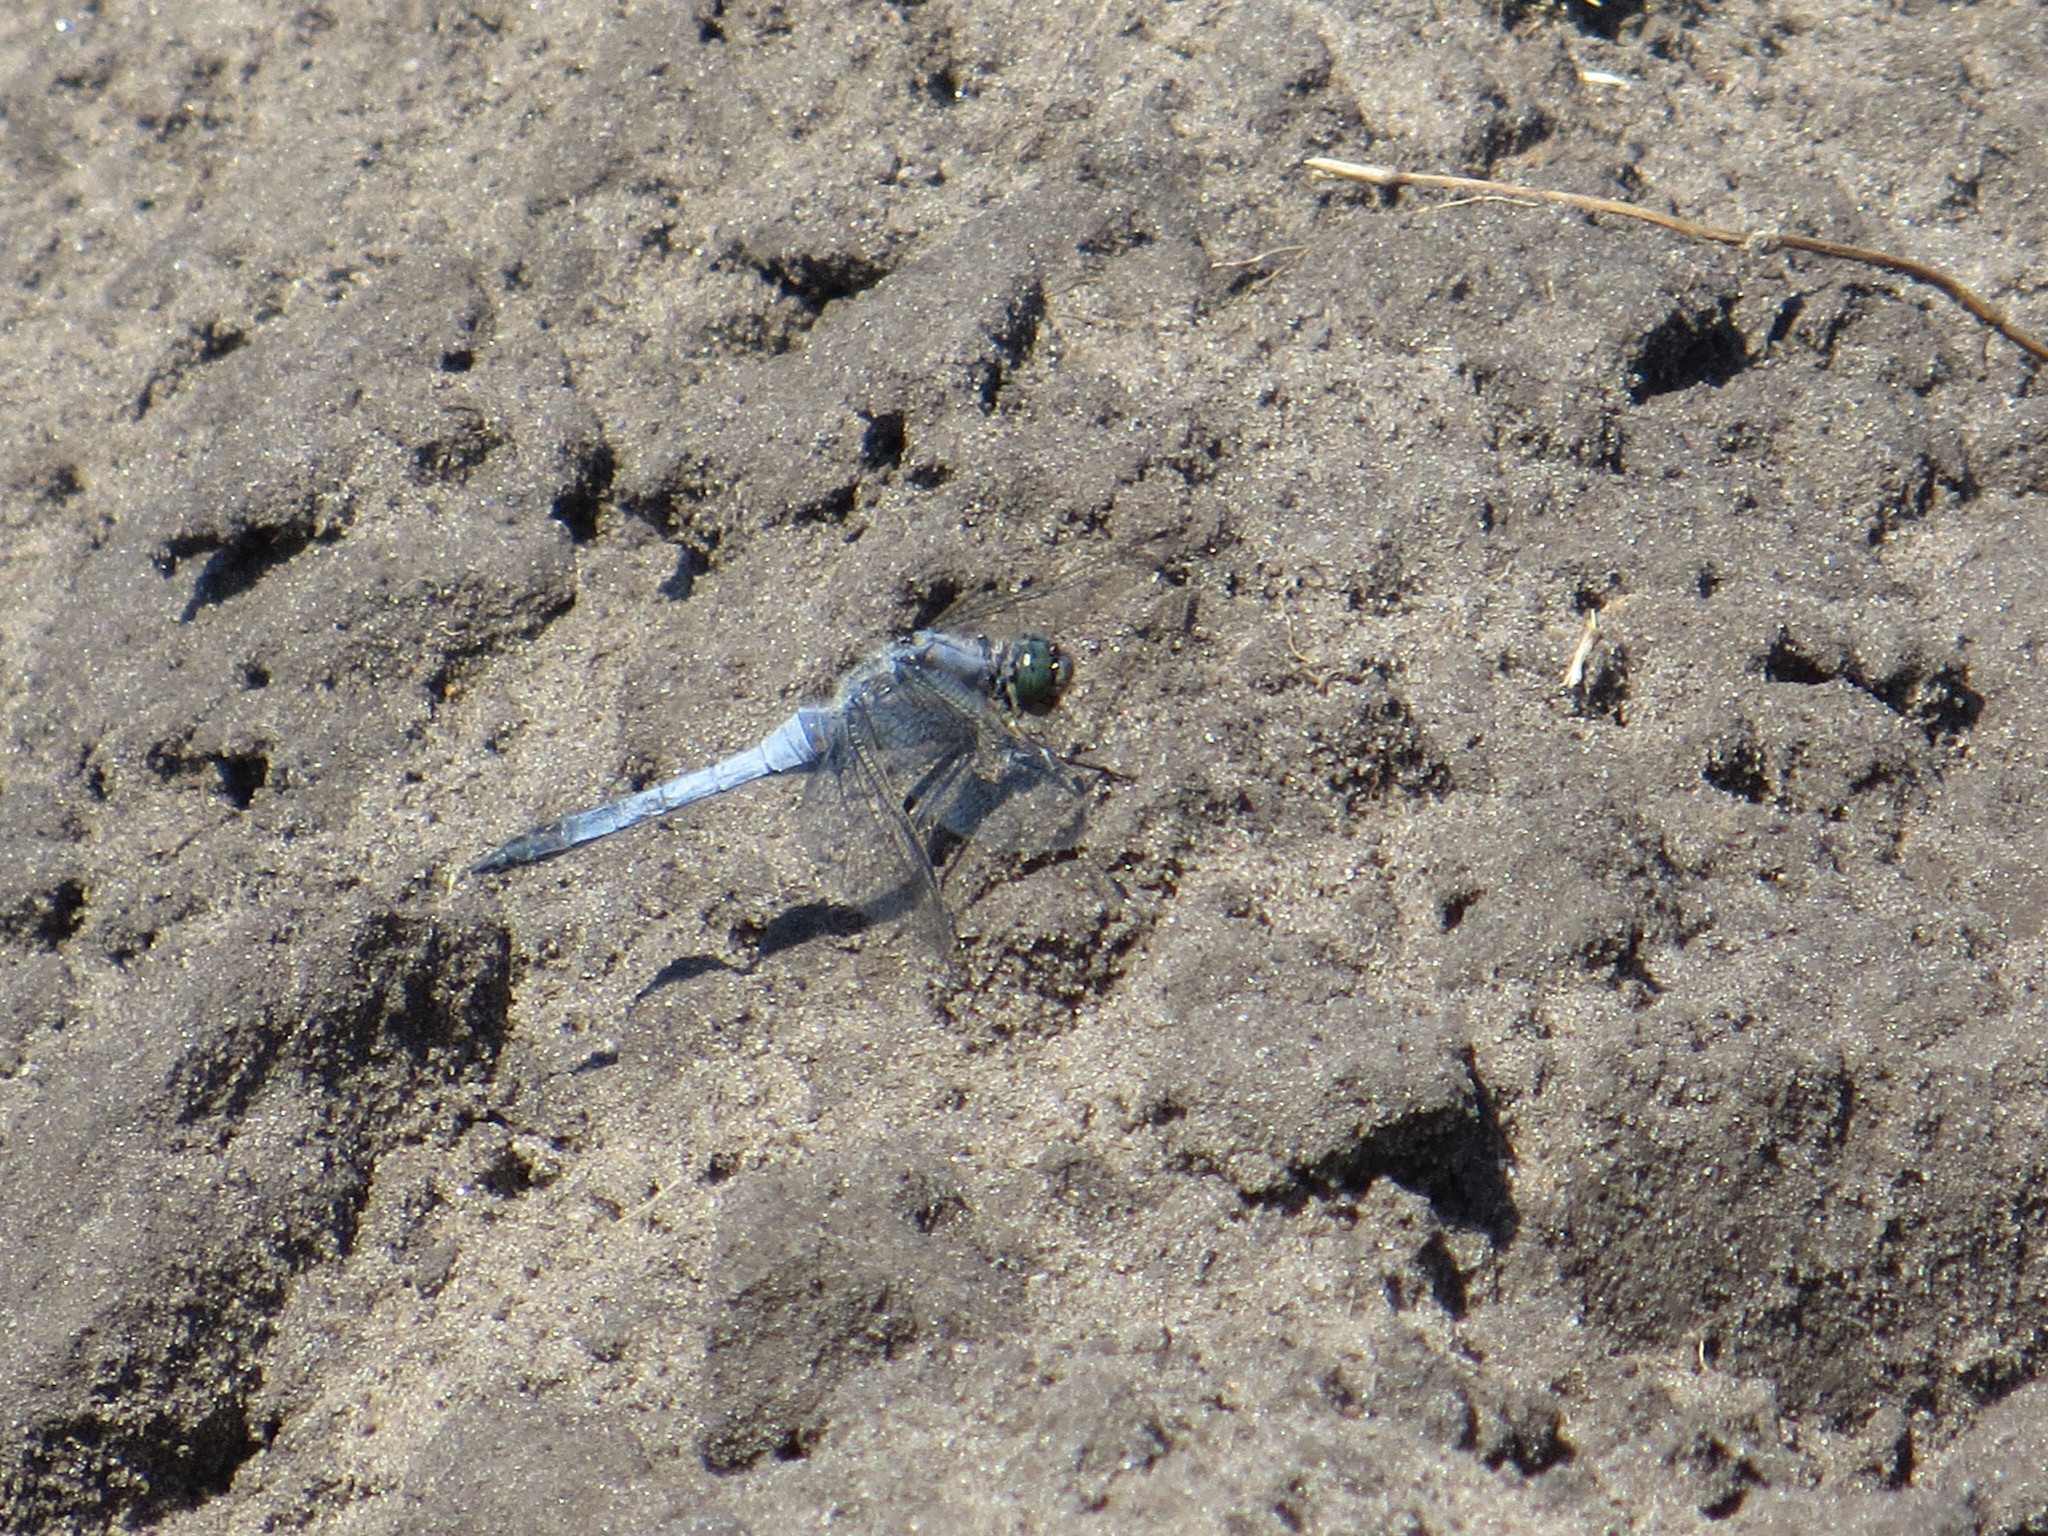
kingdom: Animalia
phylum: Arthropoda
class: Insecta
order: Odonata
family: Libellulidae
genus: Orthetrum
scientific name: Orthetrum cancellatum
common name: Black-tailed skimmer
